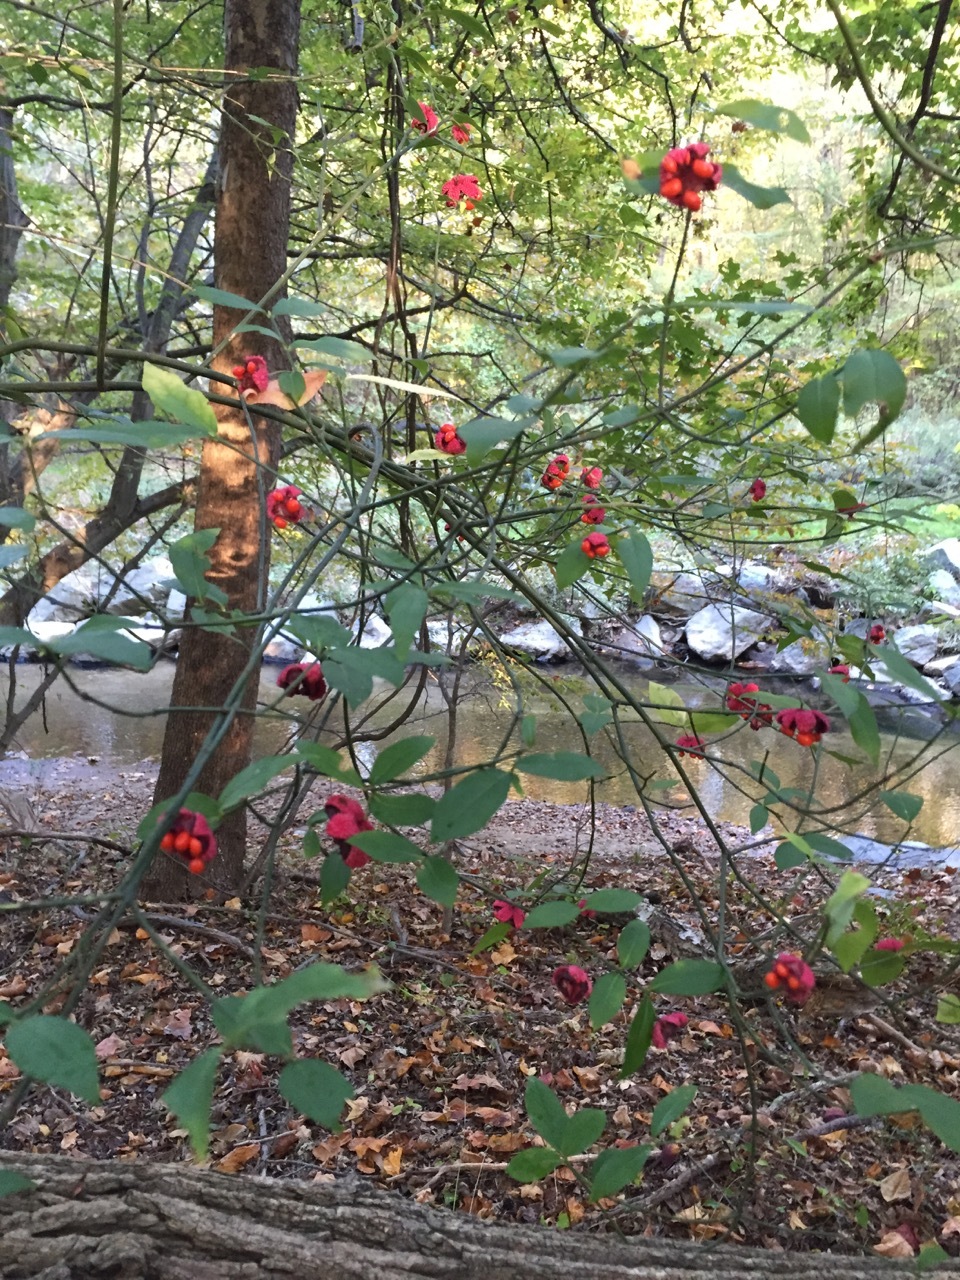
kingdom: Plantae
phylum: Tracheophyta
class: Magnoliopsida
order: Celastrales
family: Celastraceae
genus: Euonymus
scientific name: Euonymus americanus
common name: Bursting-heart
